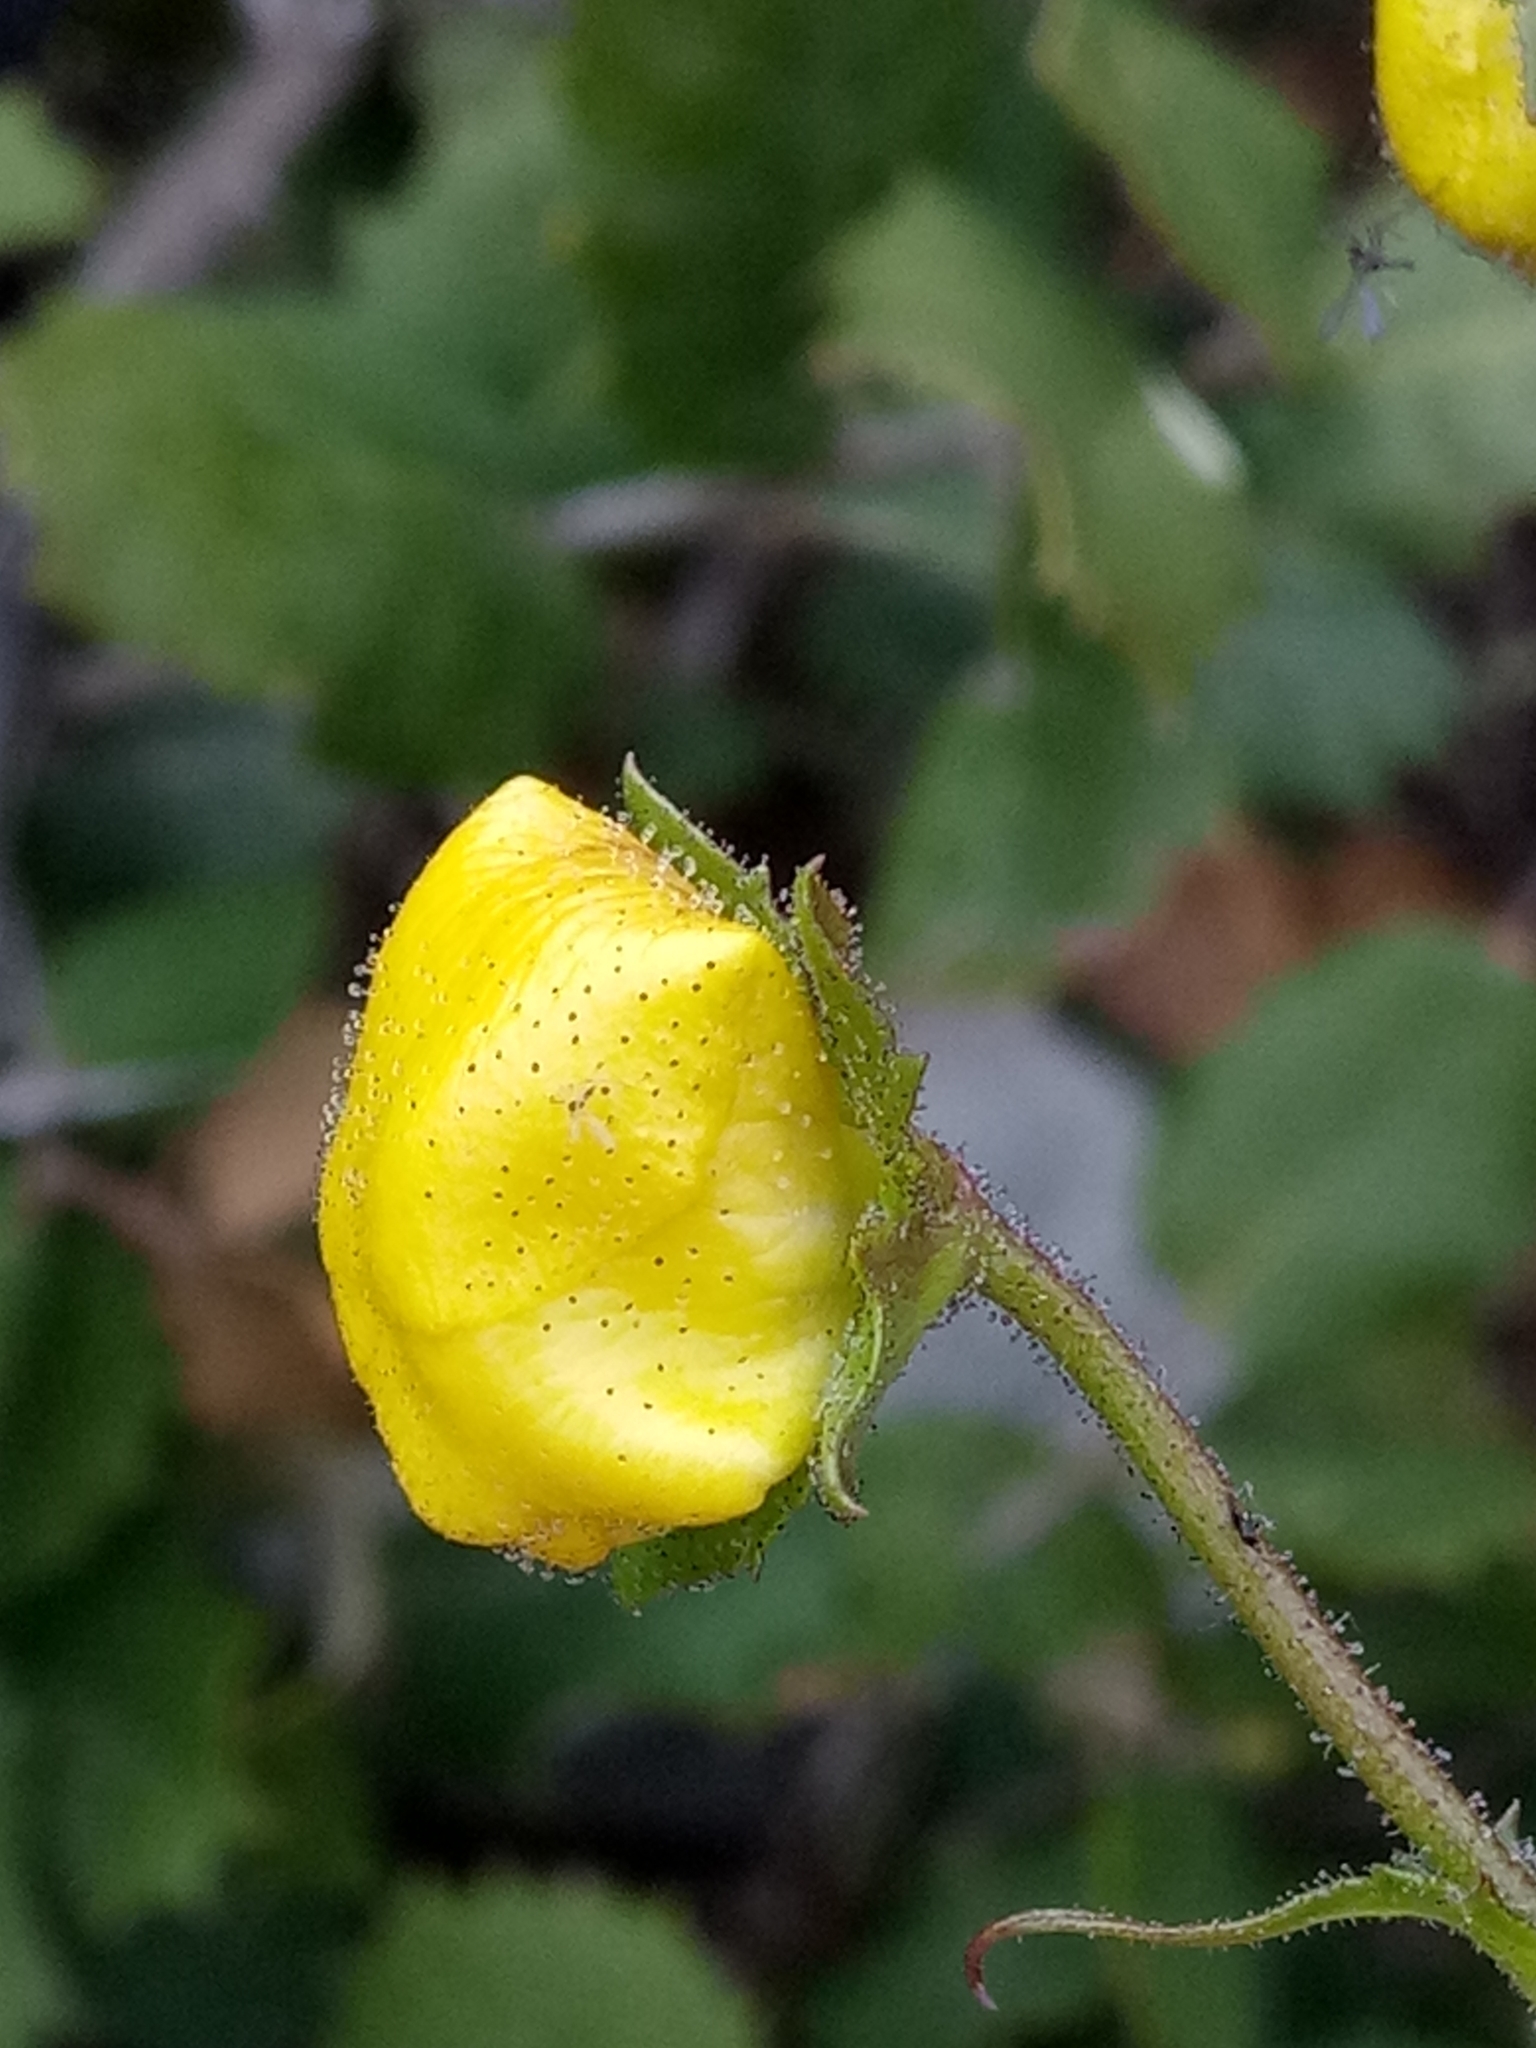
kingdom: Plantae
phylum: Tracheophyta
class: Magnoliopsida
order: Lamiales
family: Scrophulariaceae
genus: Verbascum
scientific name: Verbascum betonicifolium
